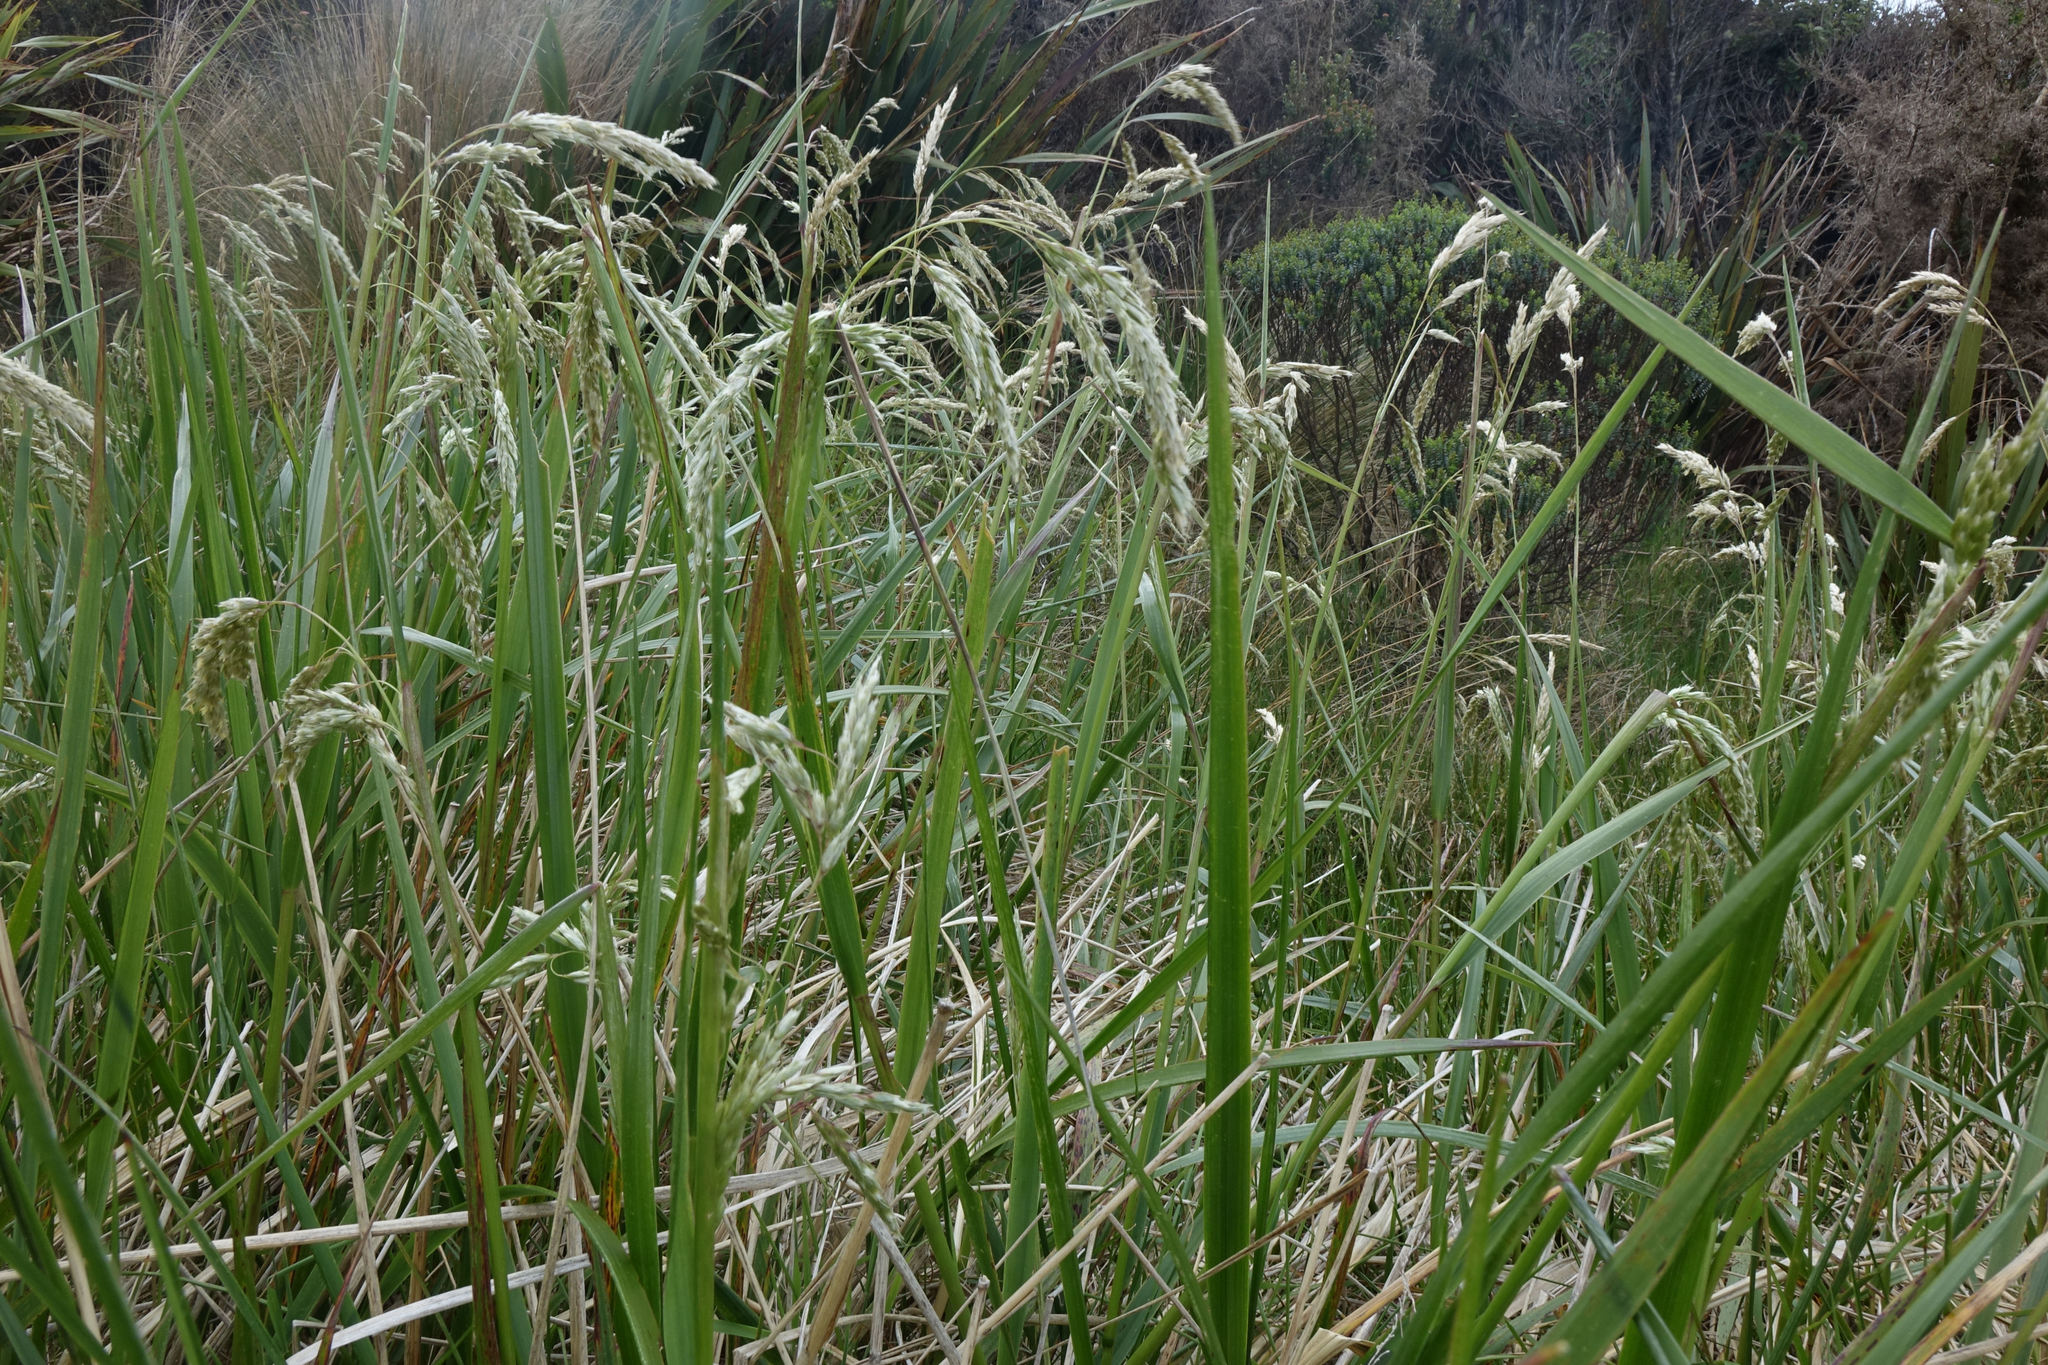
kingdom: Plantae
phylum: Tracheophyta
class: Liliopsida
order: Poales
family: Poaceae
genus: Anthoxanthum
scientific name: Anthoxanthum redolens
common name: Sweet holy grass
